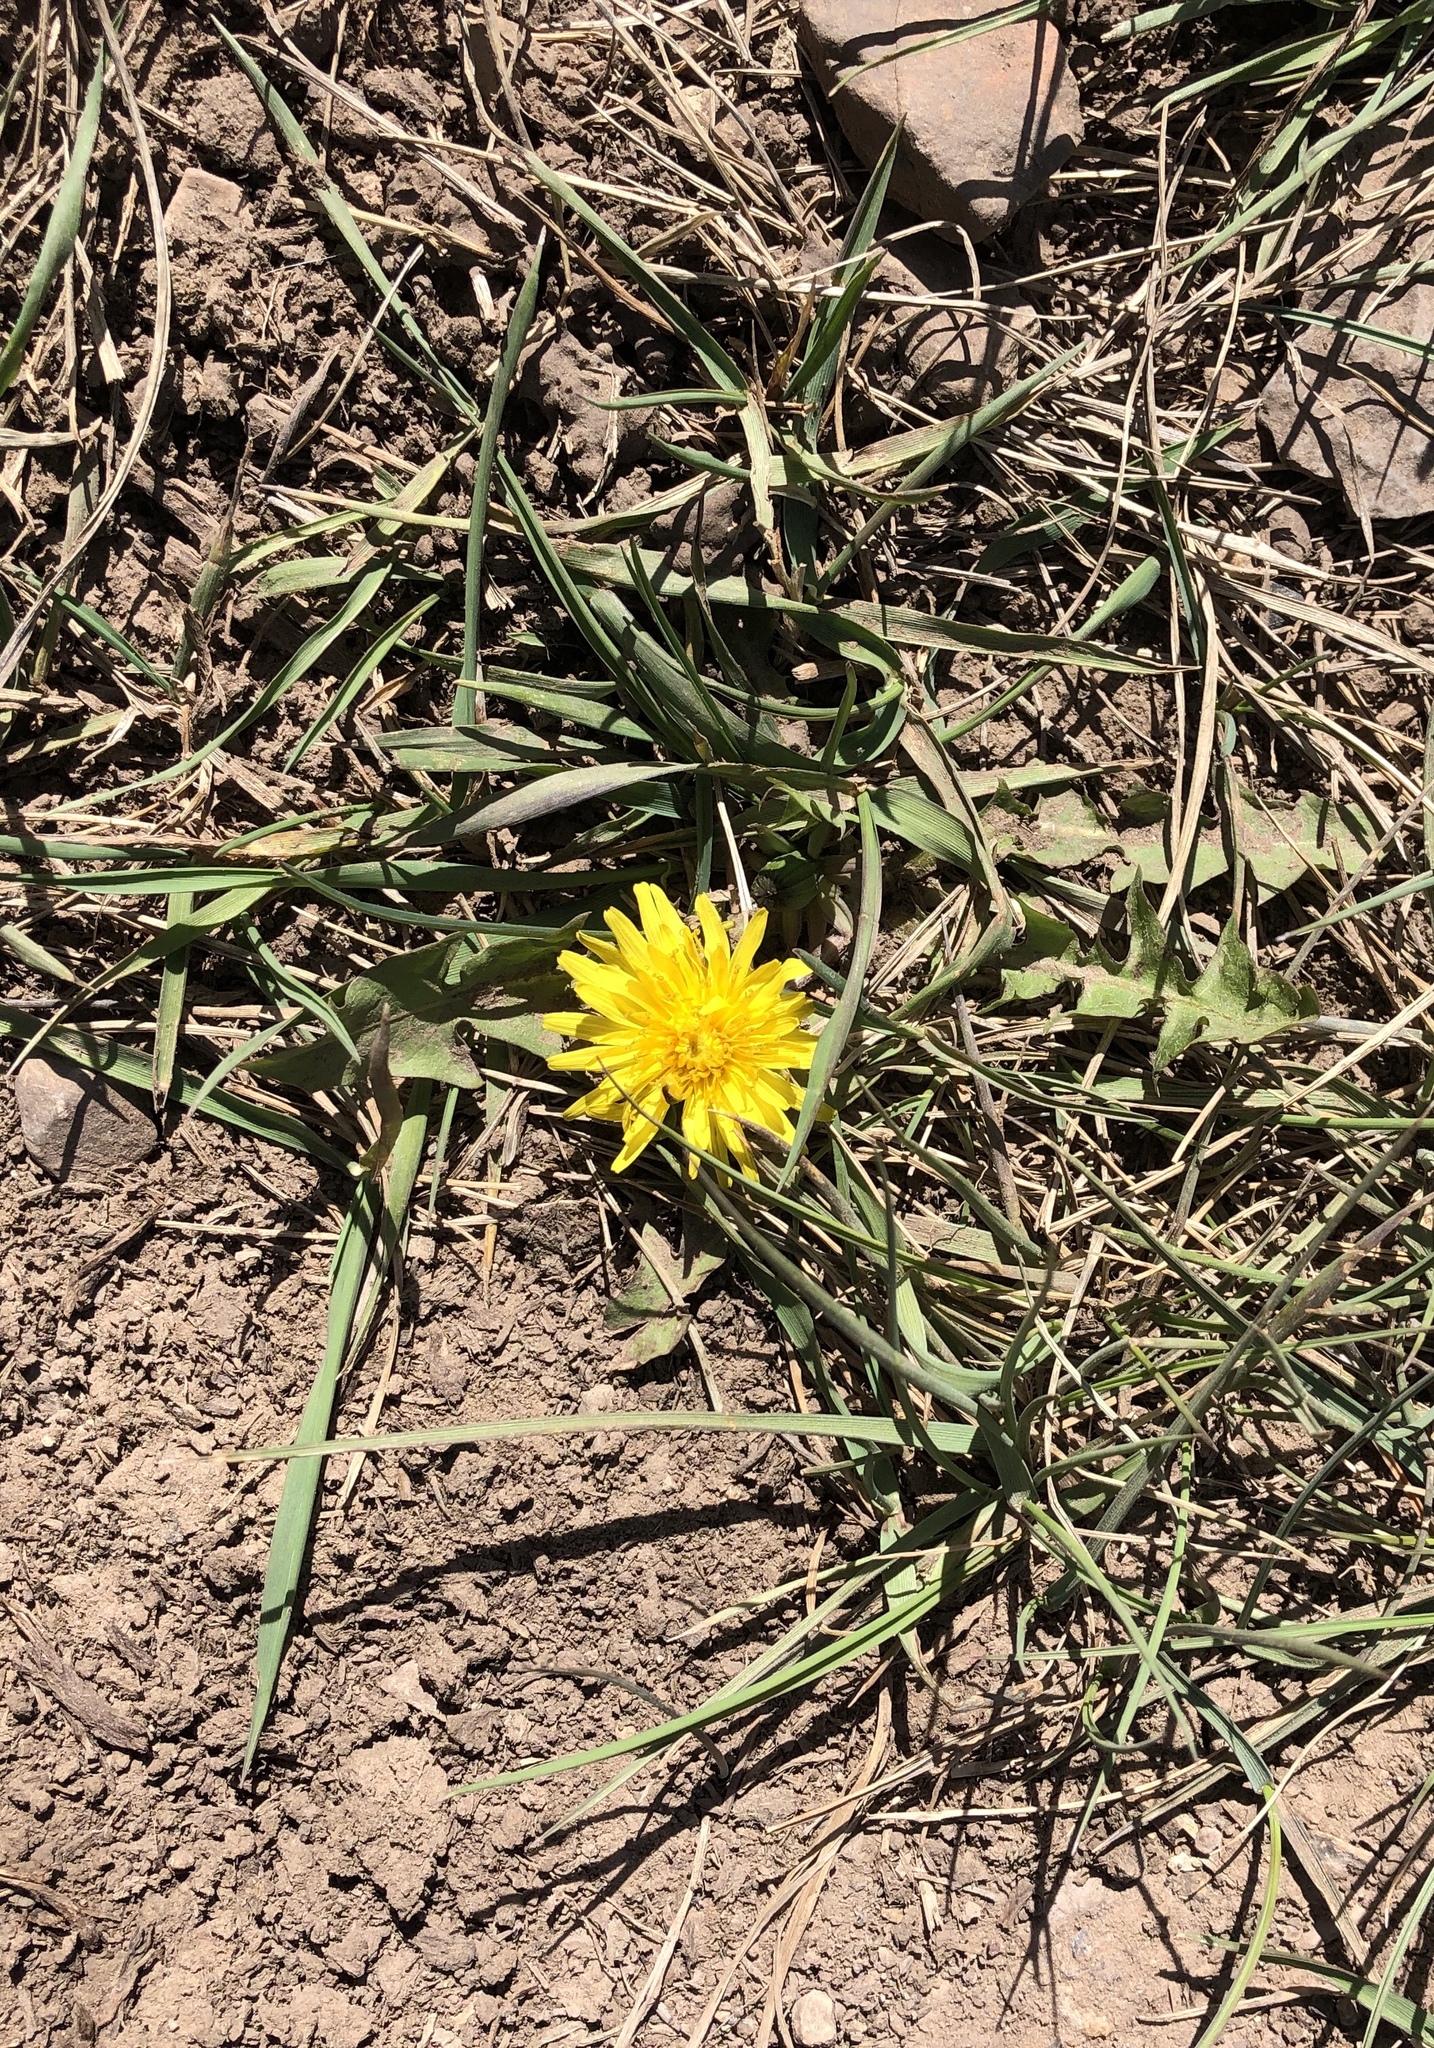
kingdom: Plantae
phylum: Tracheophyta
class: Magnoliopsida
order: Asterales
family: Asteraceae
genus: Taraxacum
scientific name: Taraxacum officinale
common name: Common dandelion
